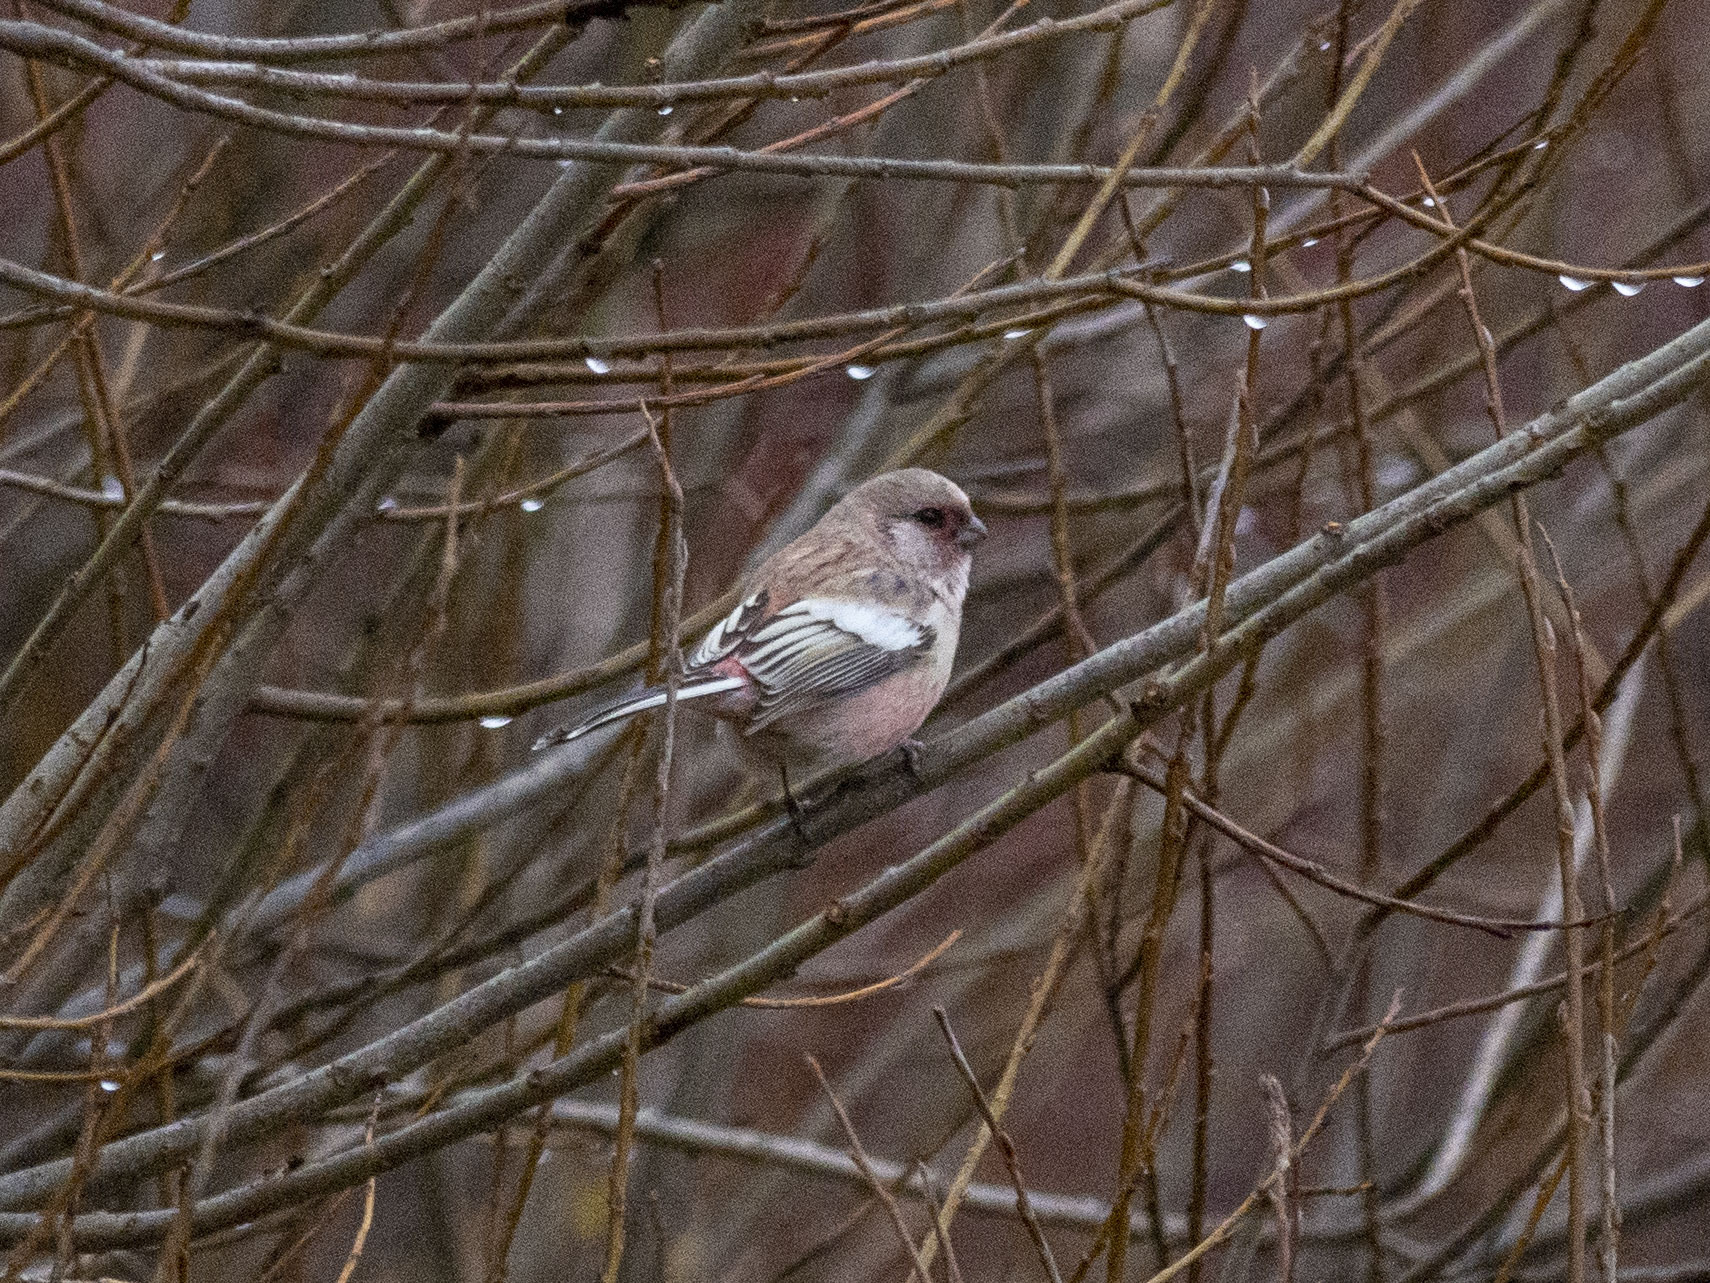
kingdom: Animalia
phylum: Chordata
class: Aves
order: Passeriformes
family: Fringillidae
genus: Carpodacus
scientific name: Carpodacus sibiricus
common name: Long-tailed rosefinch
